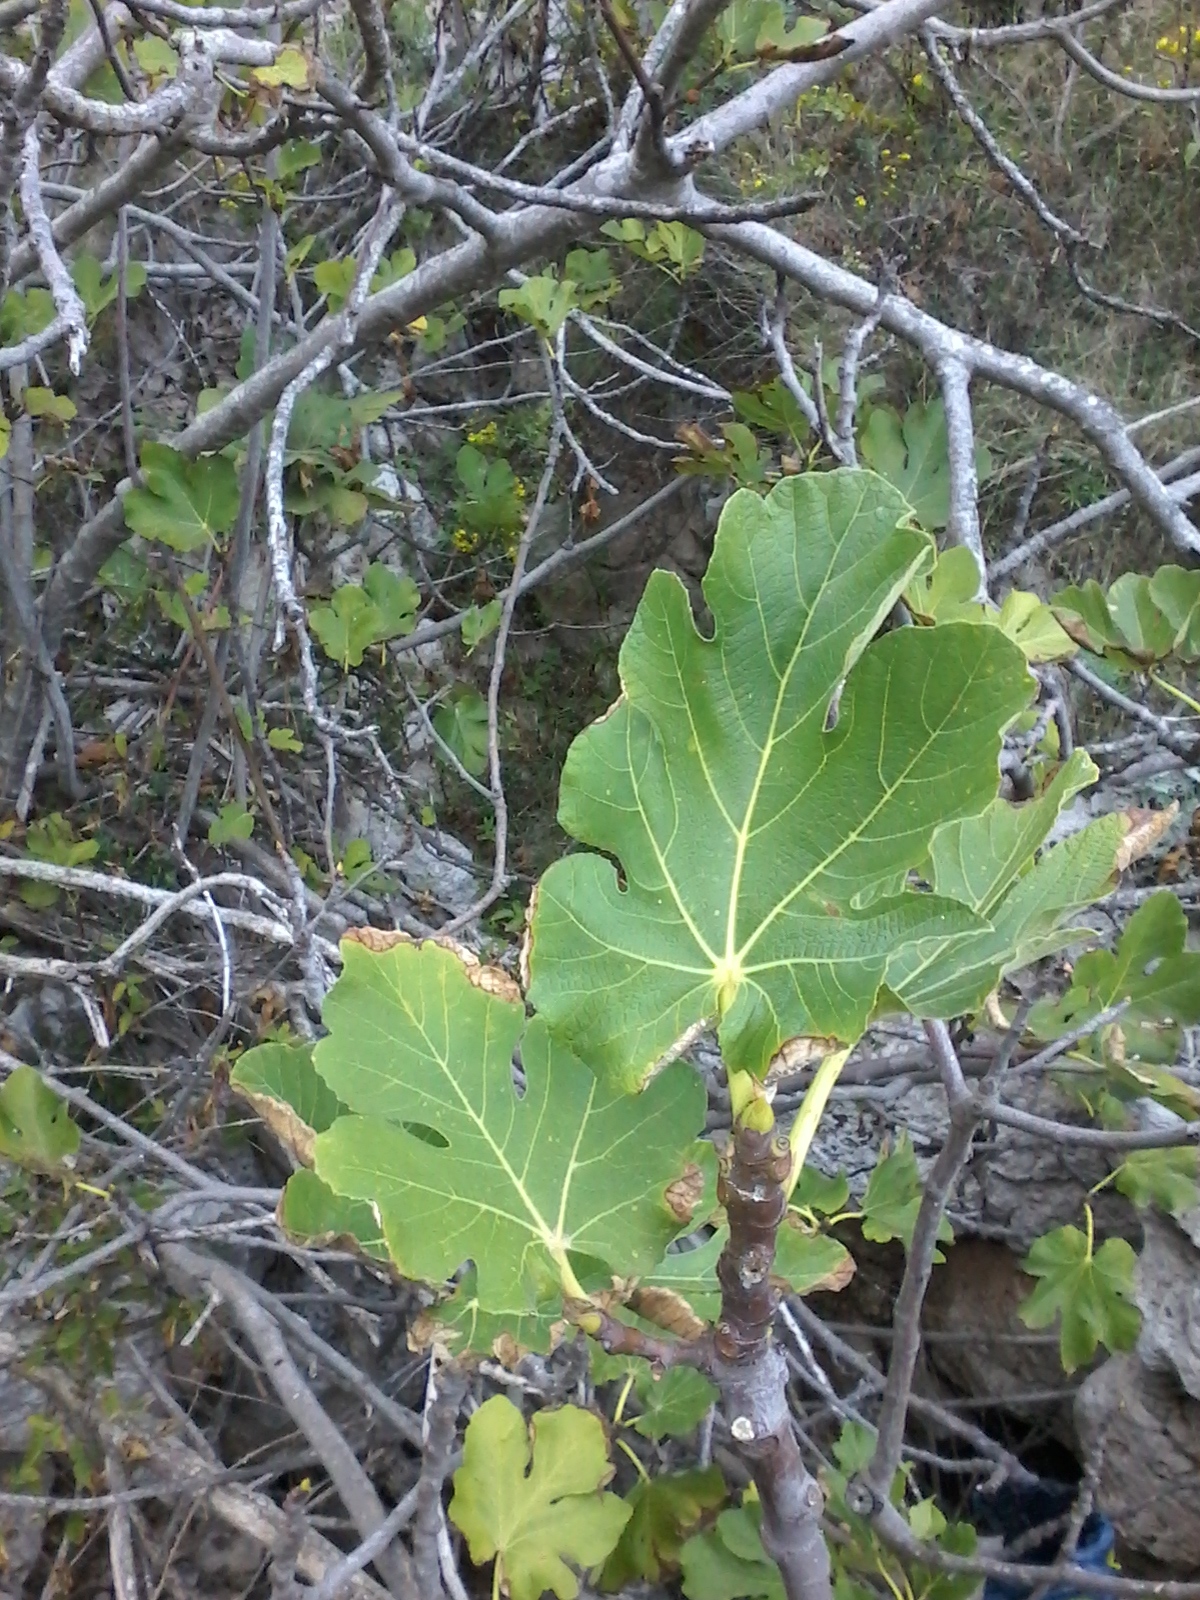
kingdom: Plantae
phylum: Tracheophyta
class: Magnoliopsida
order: Rosales
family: Moraceae
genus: Ficus
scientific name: Ficus carica
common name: Fig
